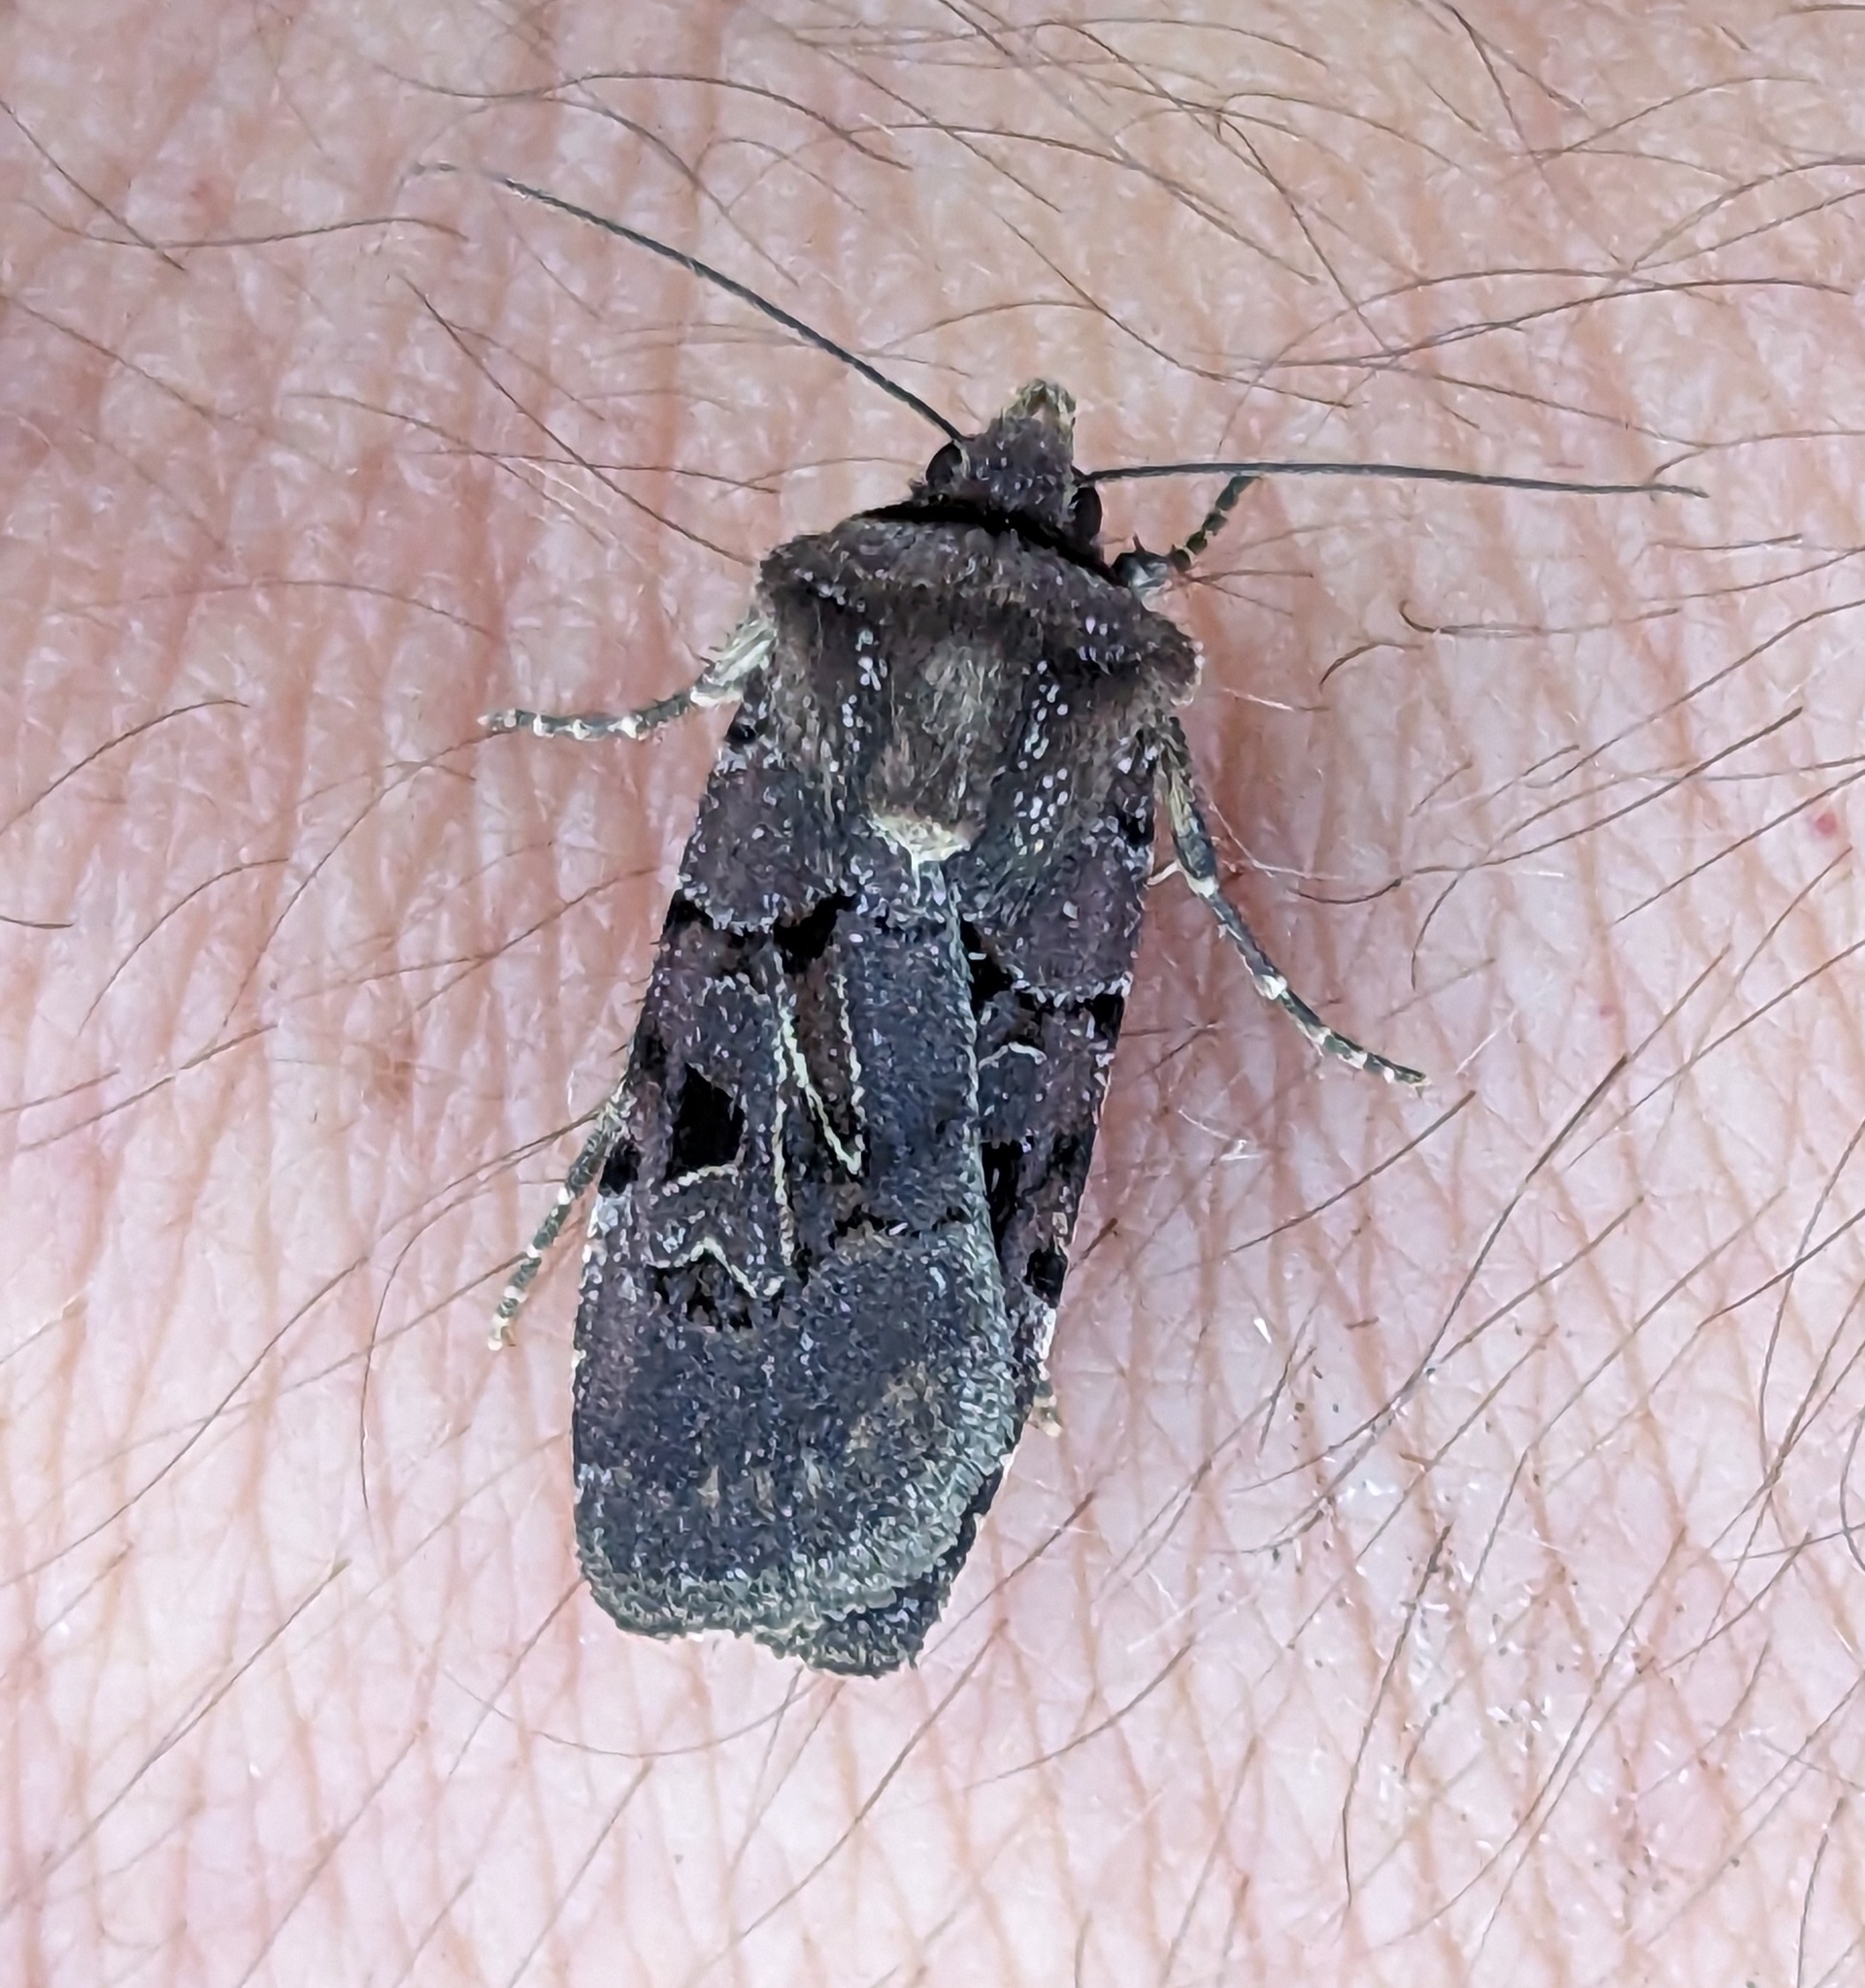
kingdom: Animalia
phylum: Arthropoda
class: Insecta
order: Lepidoptera
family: Noctuidae
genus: Chersotis
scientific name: Chersotis juncta
